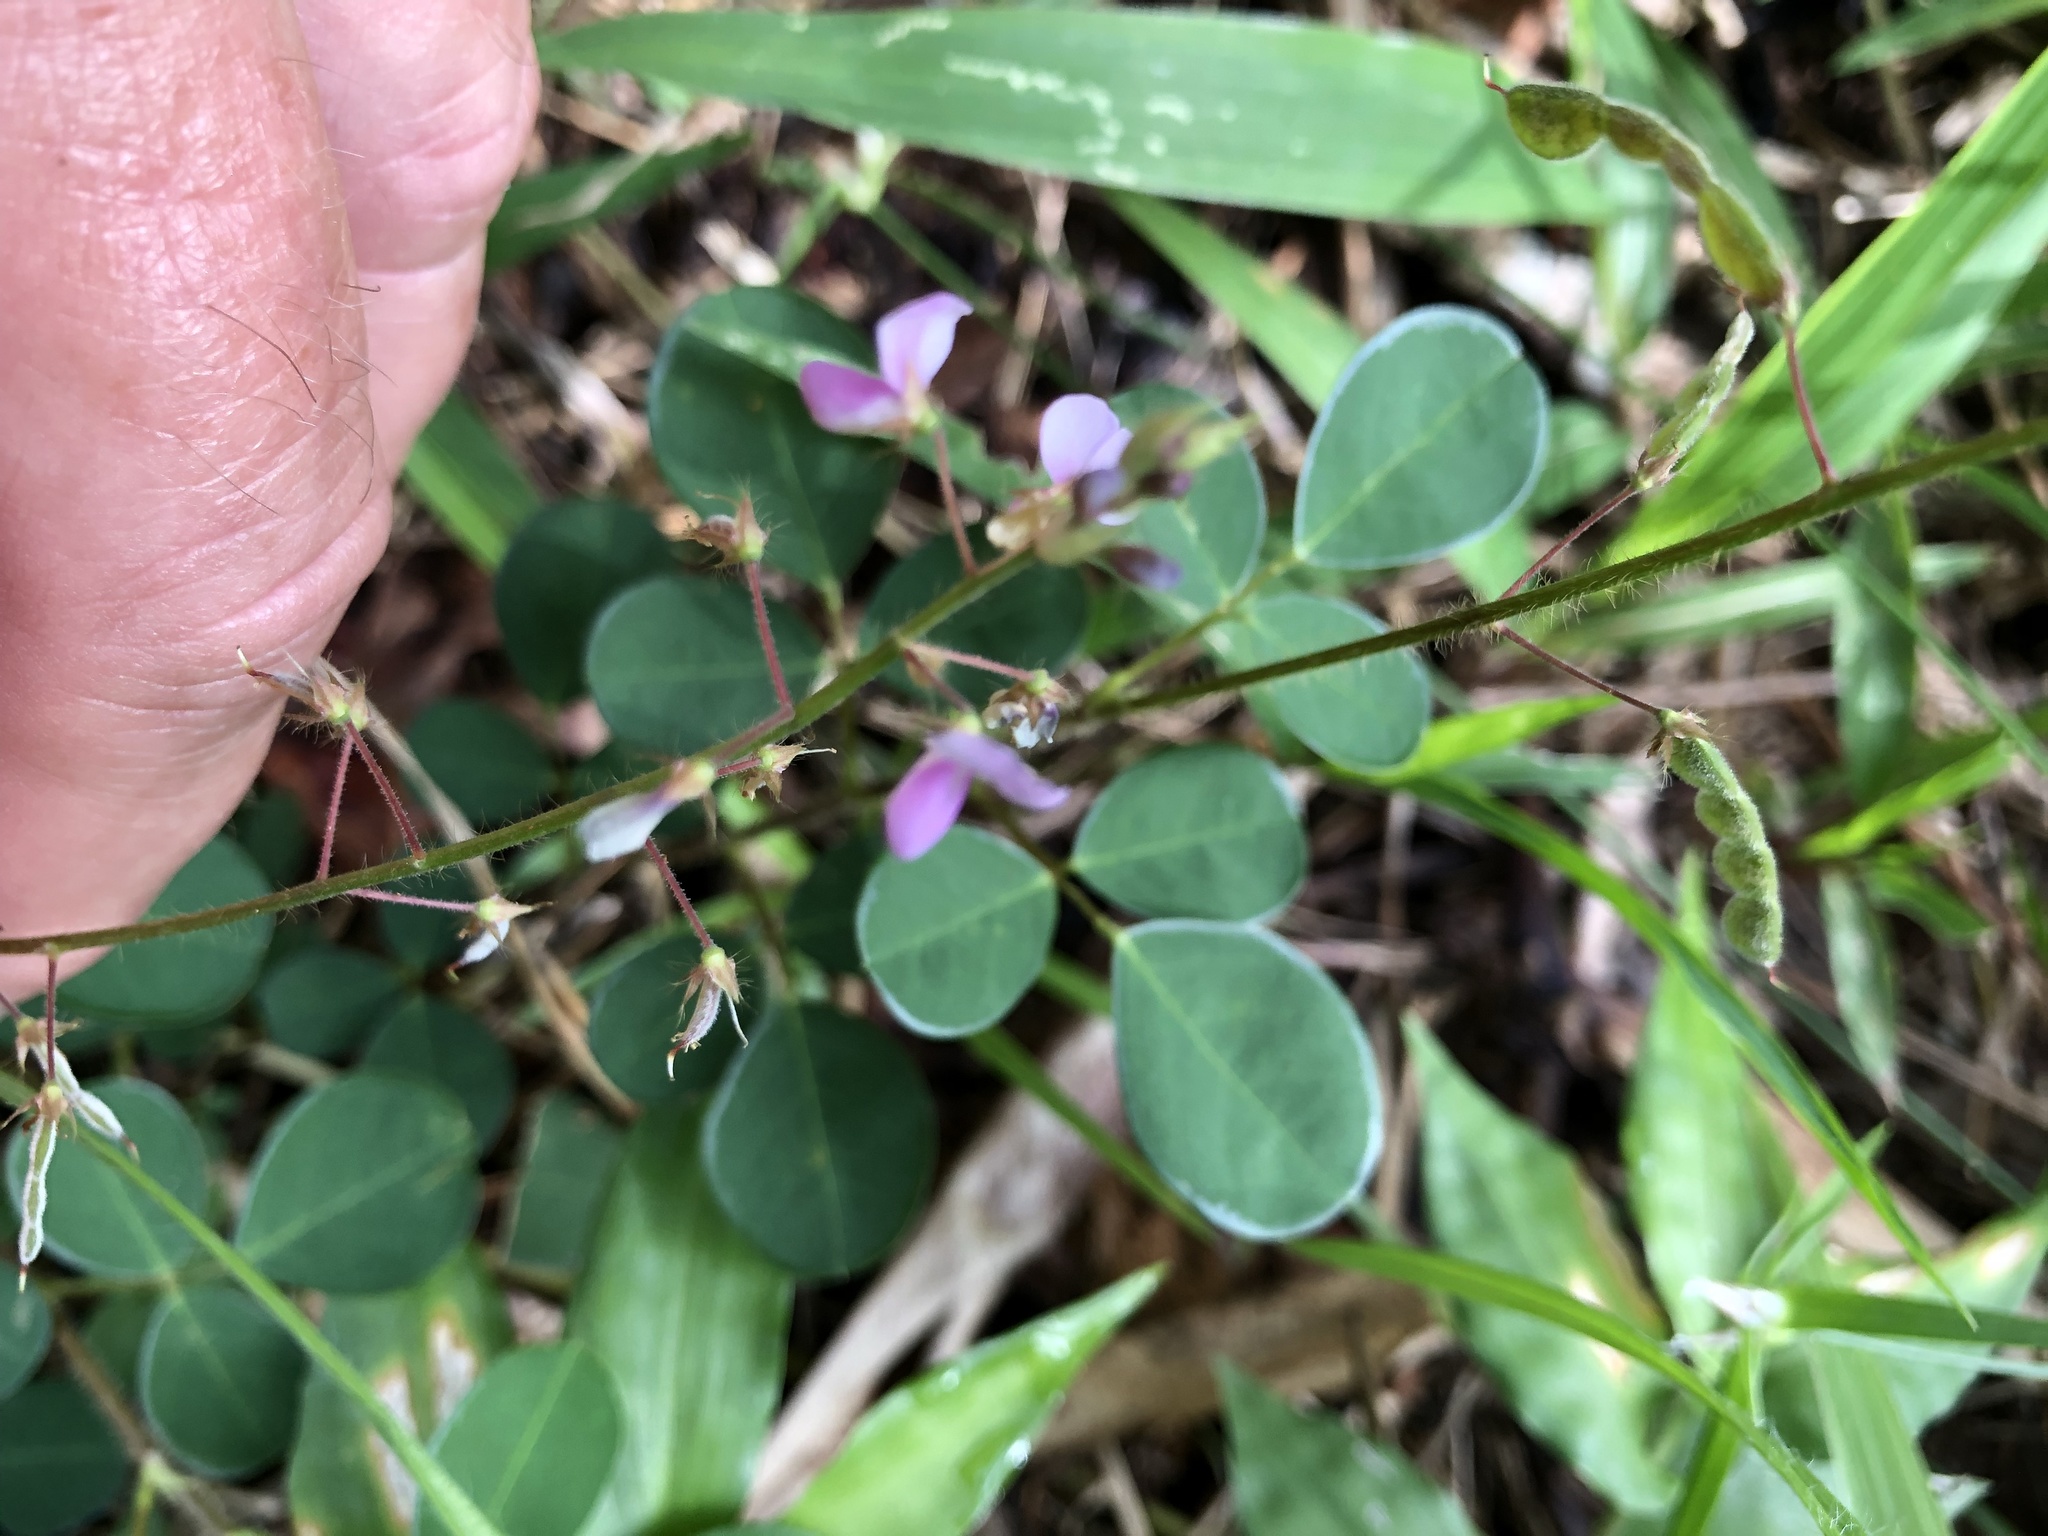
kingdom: Plantae
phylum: Tracheophyta
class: Magnoliopsida
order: Fabales
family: Fabaceae
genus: Desmodium
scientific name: Desmodium incanum
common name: Tickclover
